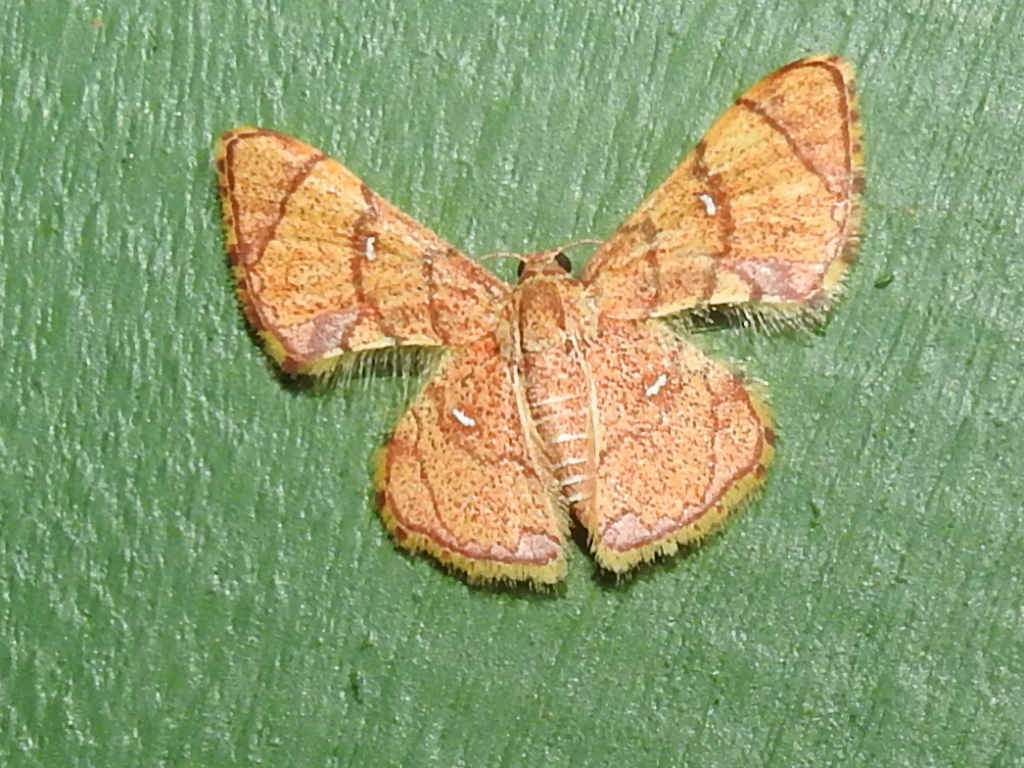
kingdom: Animalia
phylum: Arthropoda
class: Insecta
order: Lepidoptera
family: Geometridae
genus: Hemipterodes
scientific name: Hemipterodes subrotundata
